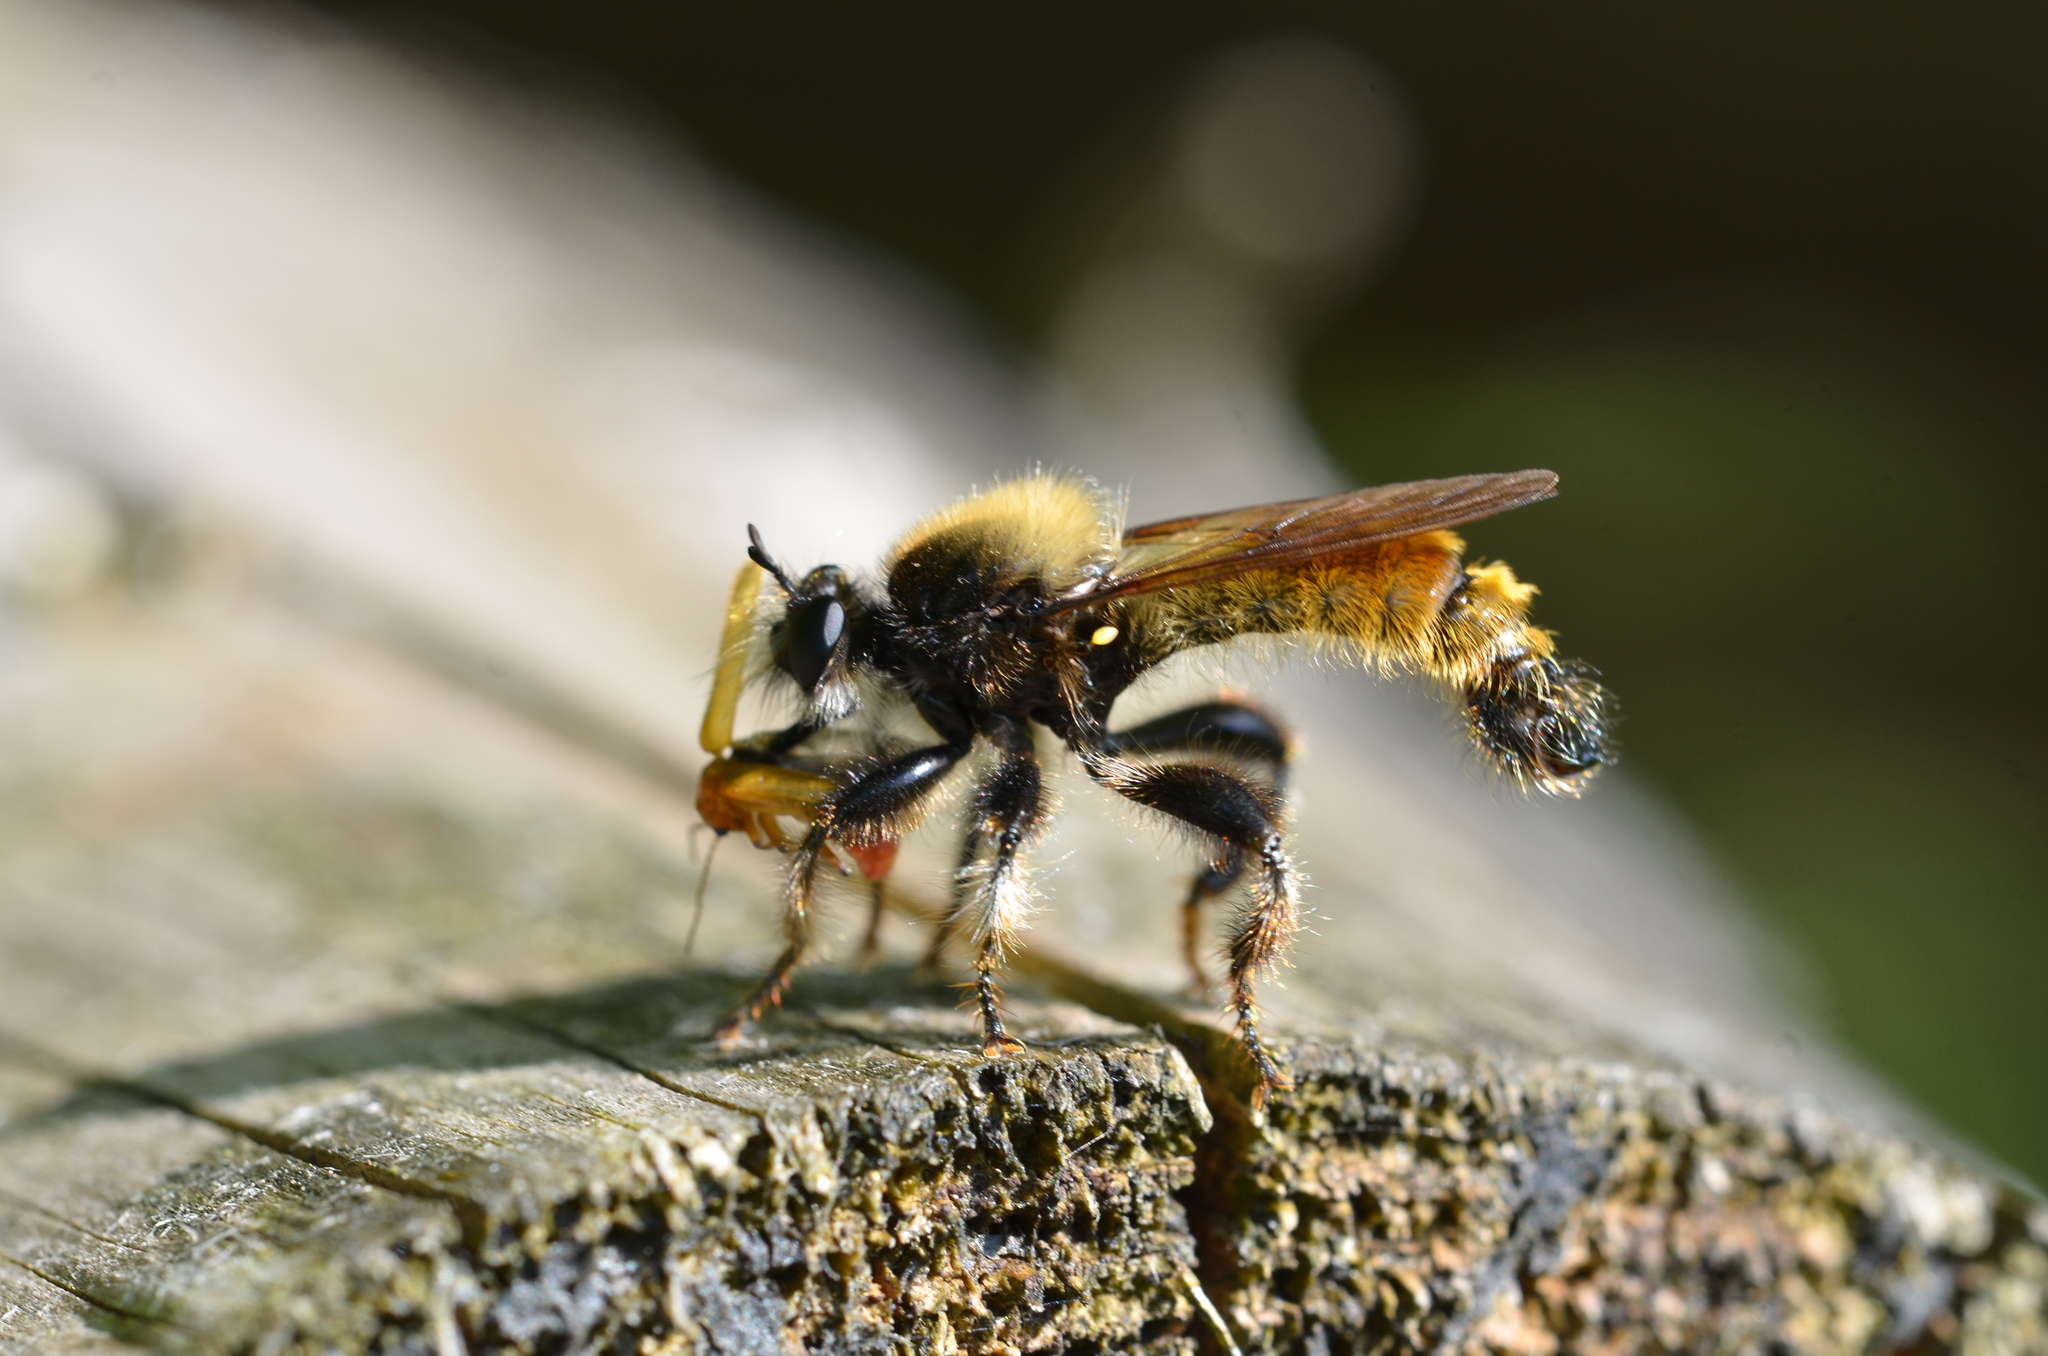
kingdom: Animalia
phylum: Arthropoda
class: Insecta
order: Diptera
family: Asilidae
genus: Laphria
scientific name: Laphria flava
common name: Bumblebee robberfly
